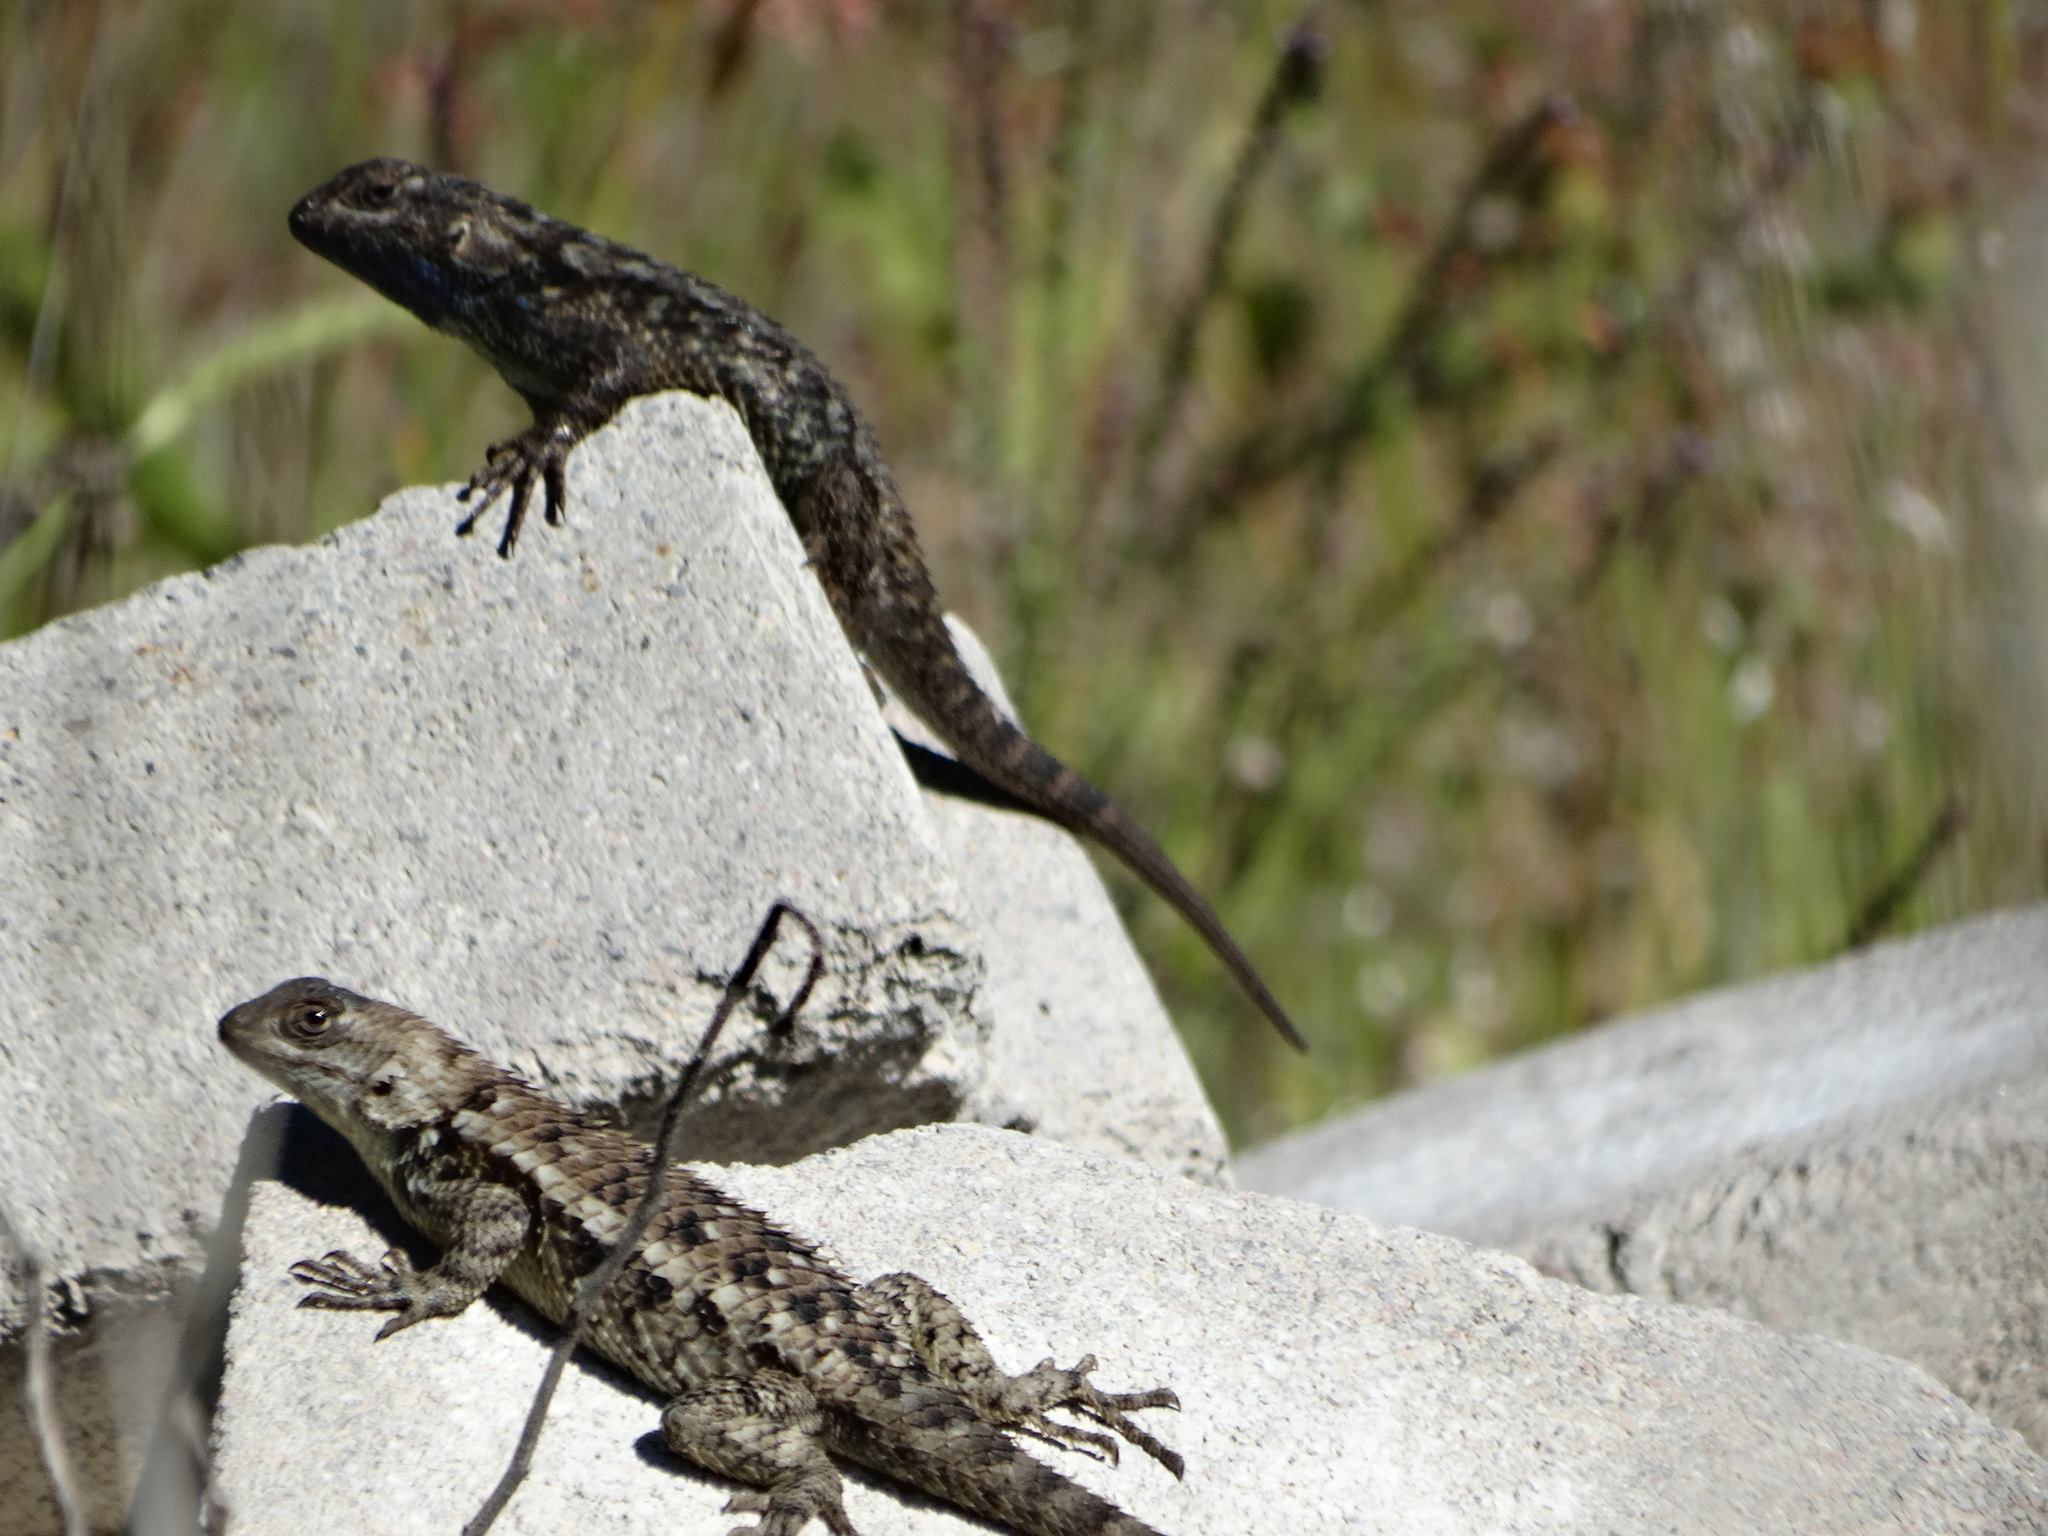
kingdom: Animalia
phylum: Chordata
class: Squamata
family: Phrynosomatidae
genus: Sceloporus
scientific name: Sceloporus spinosus
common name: Blue-spotted spiny lizard [caeruleopunctatus]
